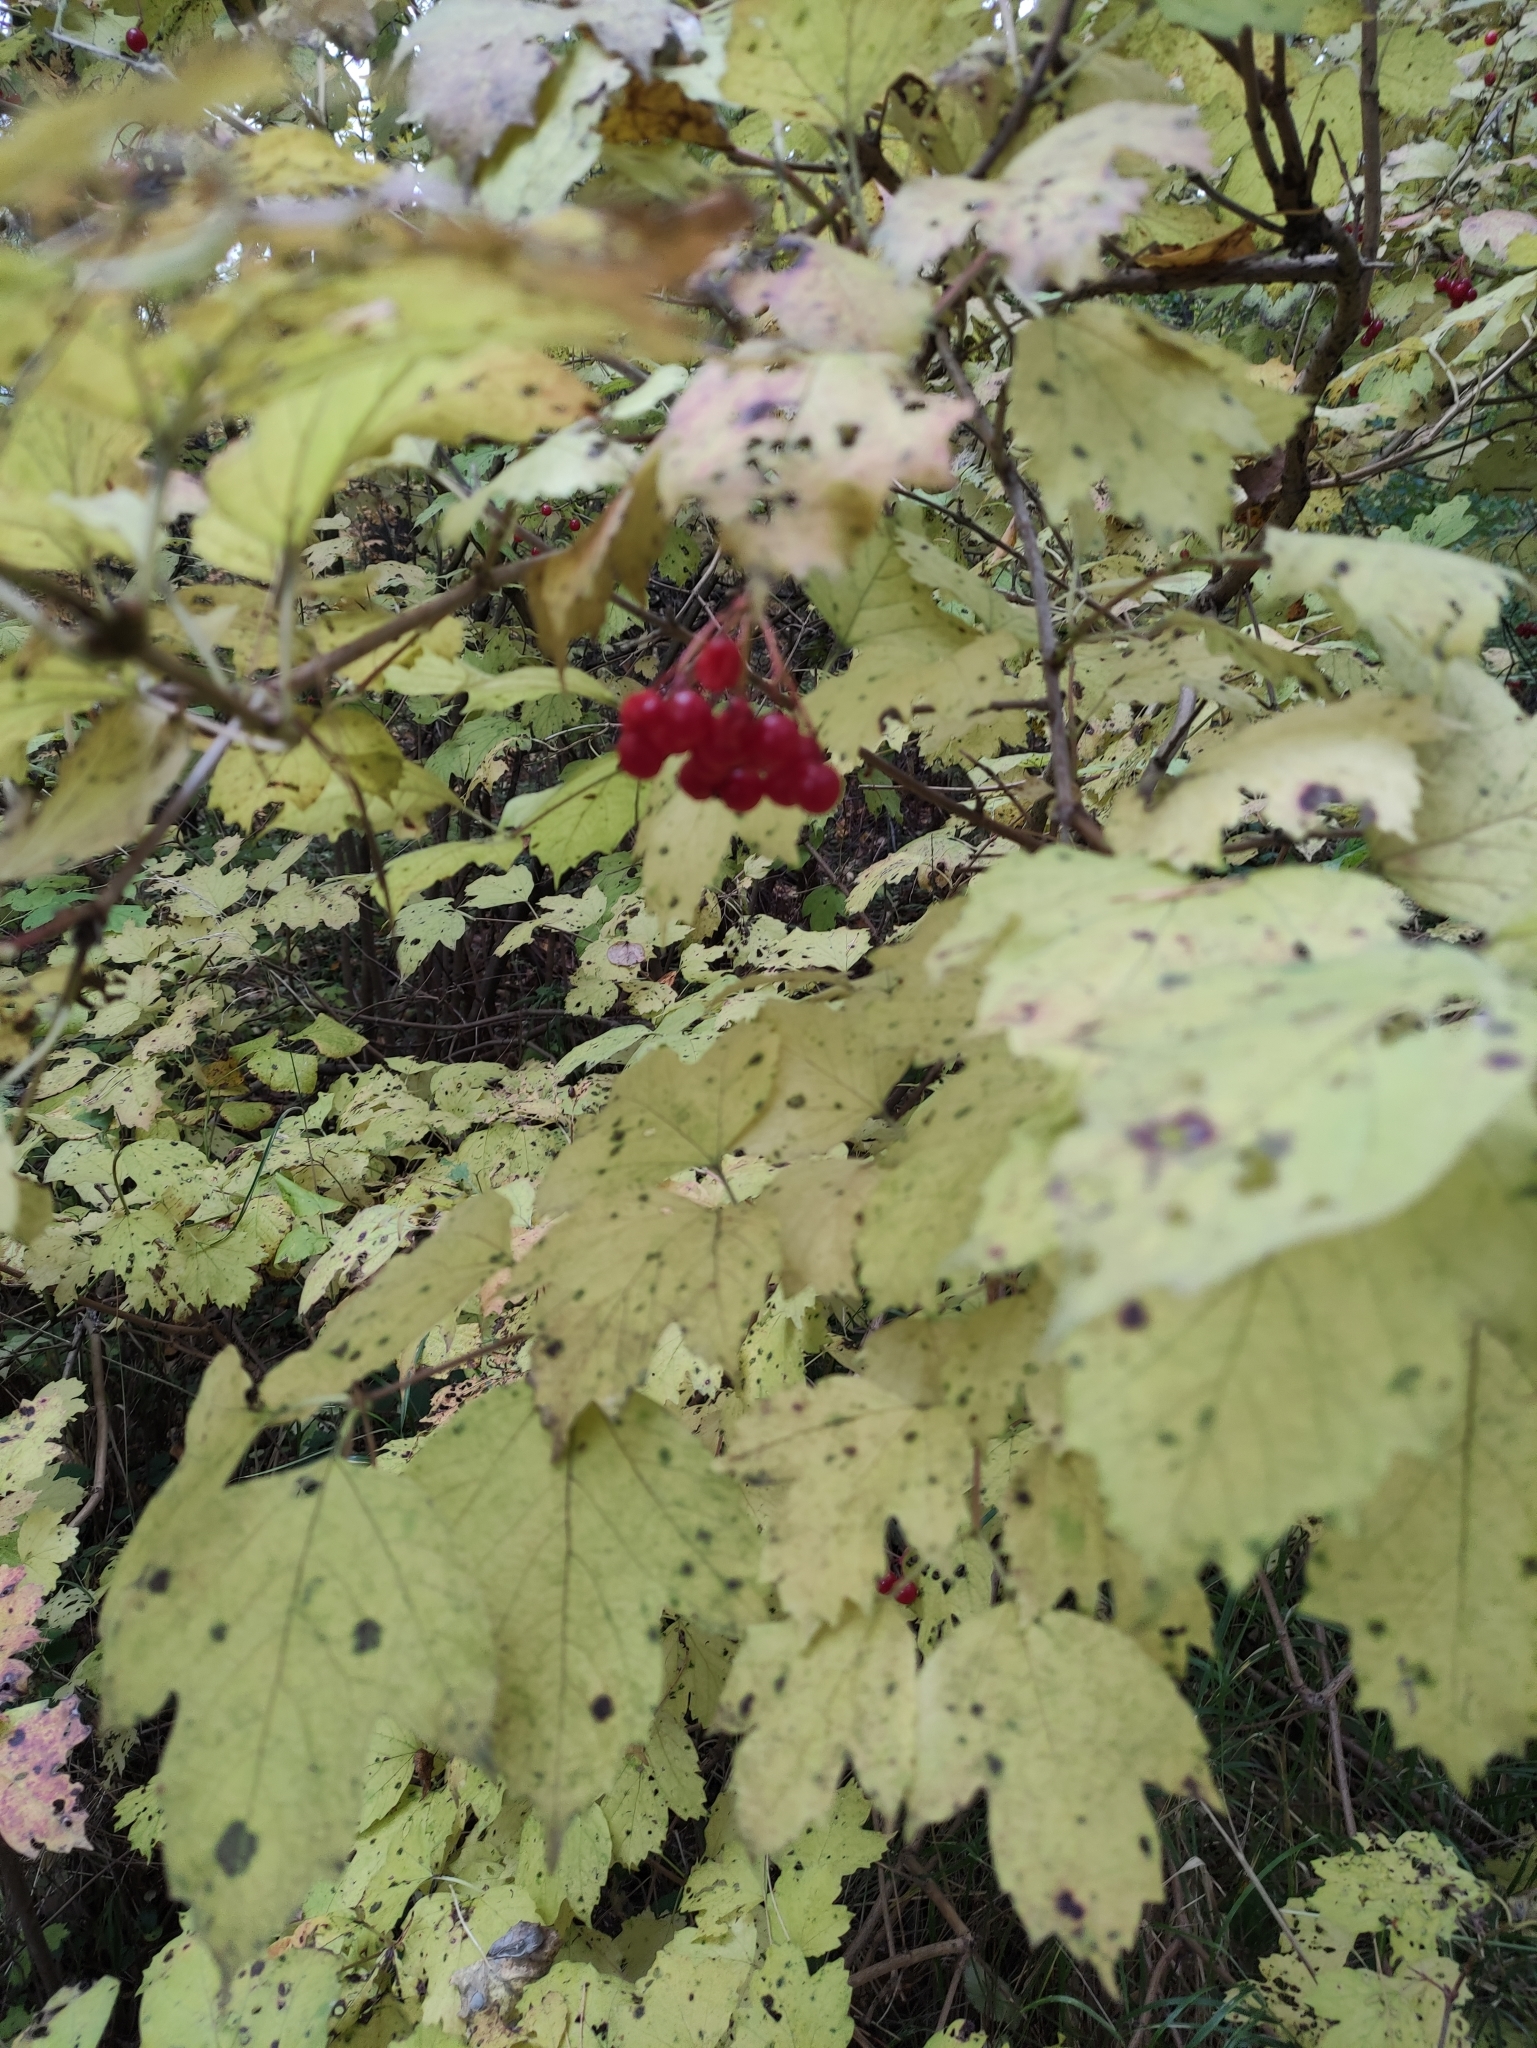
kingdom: Plantae
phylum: Tracheophyta
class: Magnoliopsida
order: Dipsacales
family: Viburnaceae
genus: Viburnum
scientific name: Viburnum opulus
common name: Guelder-rose
